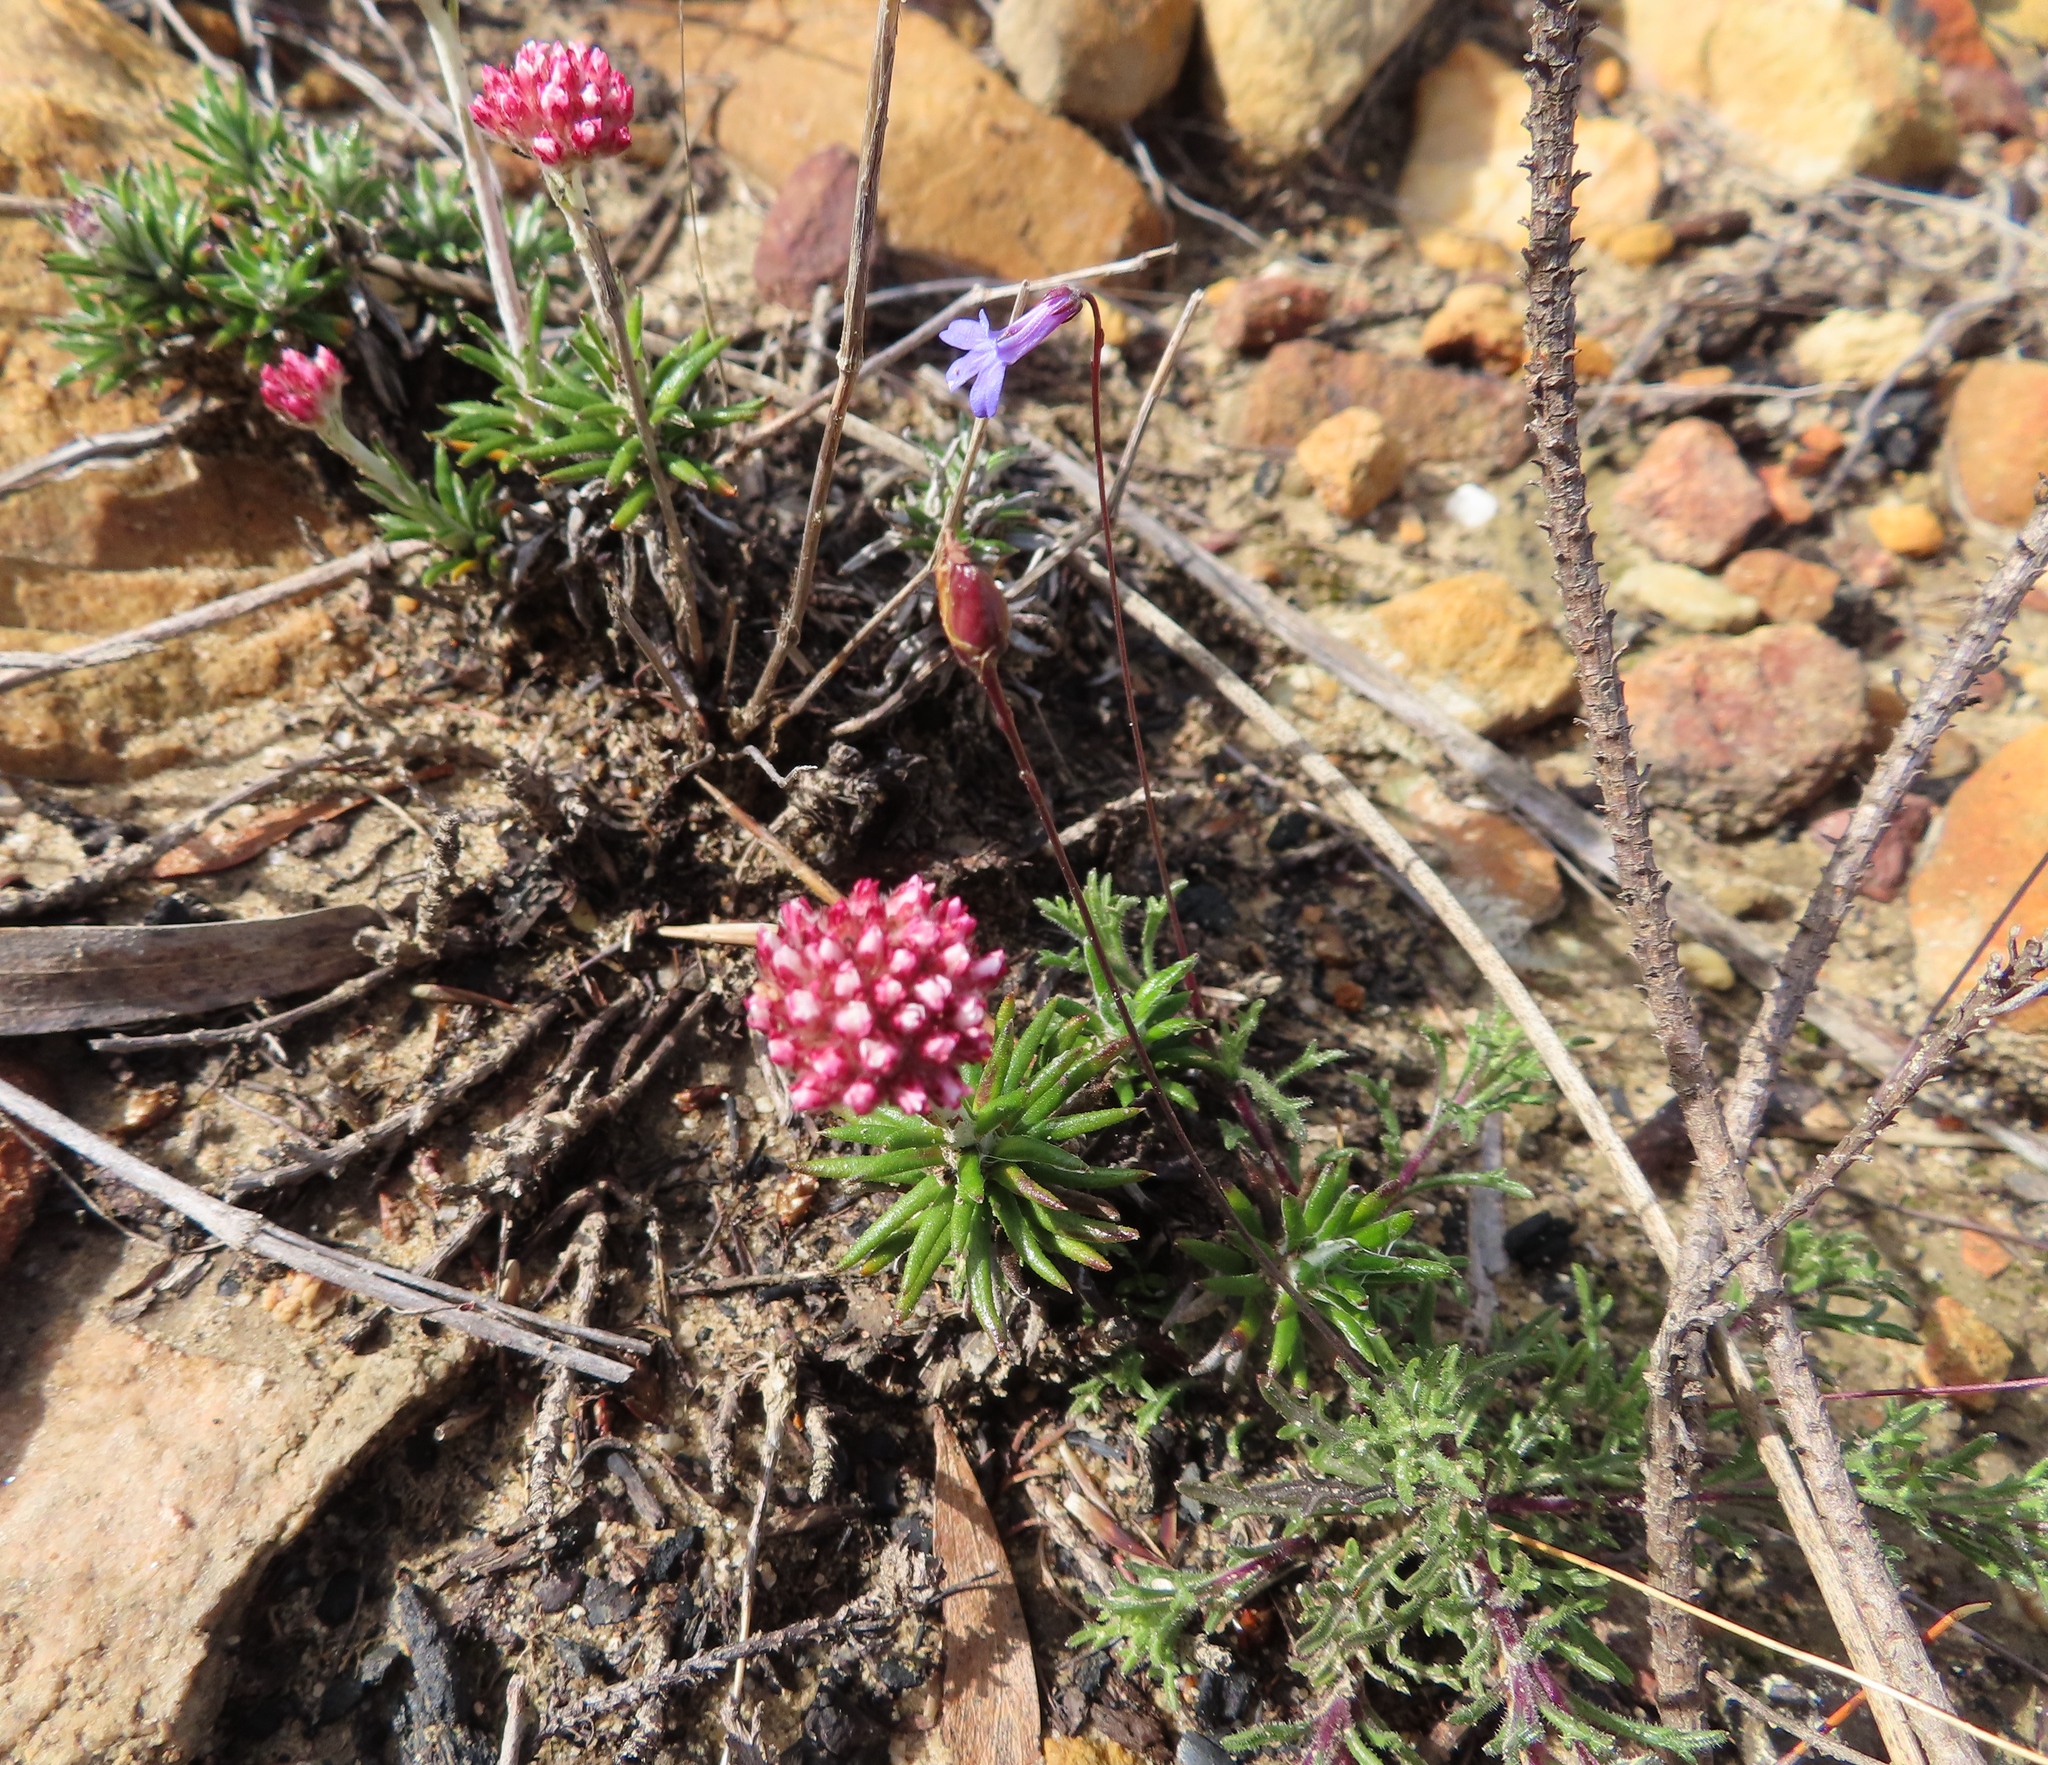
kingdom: Plantae
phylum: Tracheophyta
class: Magnoliopsida
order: Asterales
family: Asteraceae
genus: Anaxeton
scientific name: Anaxeton asperum
